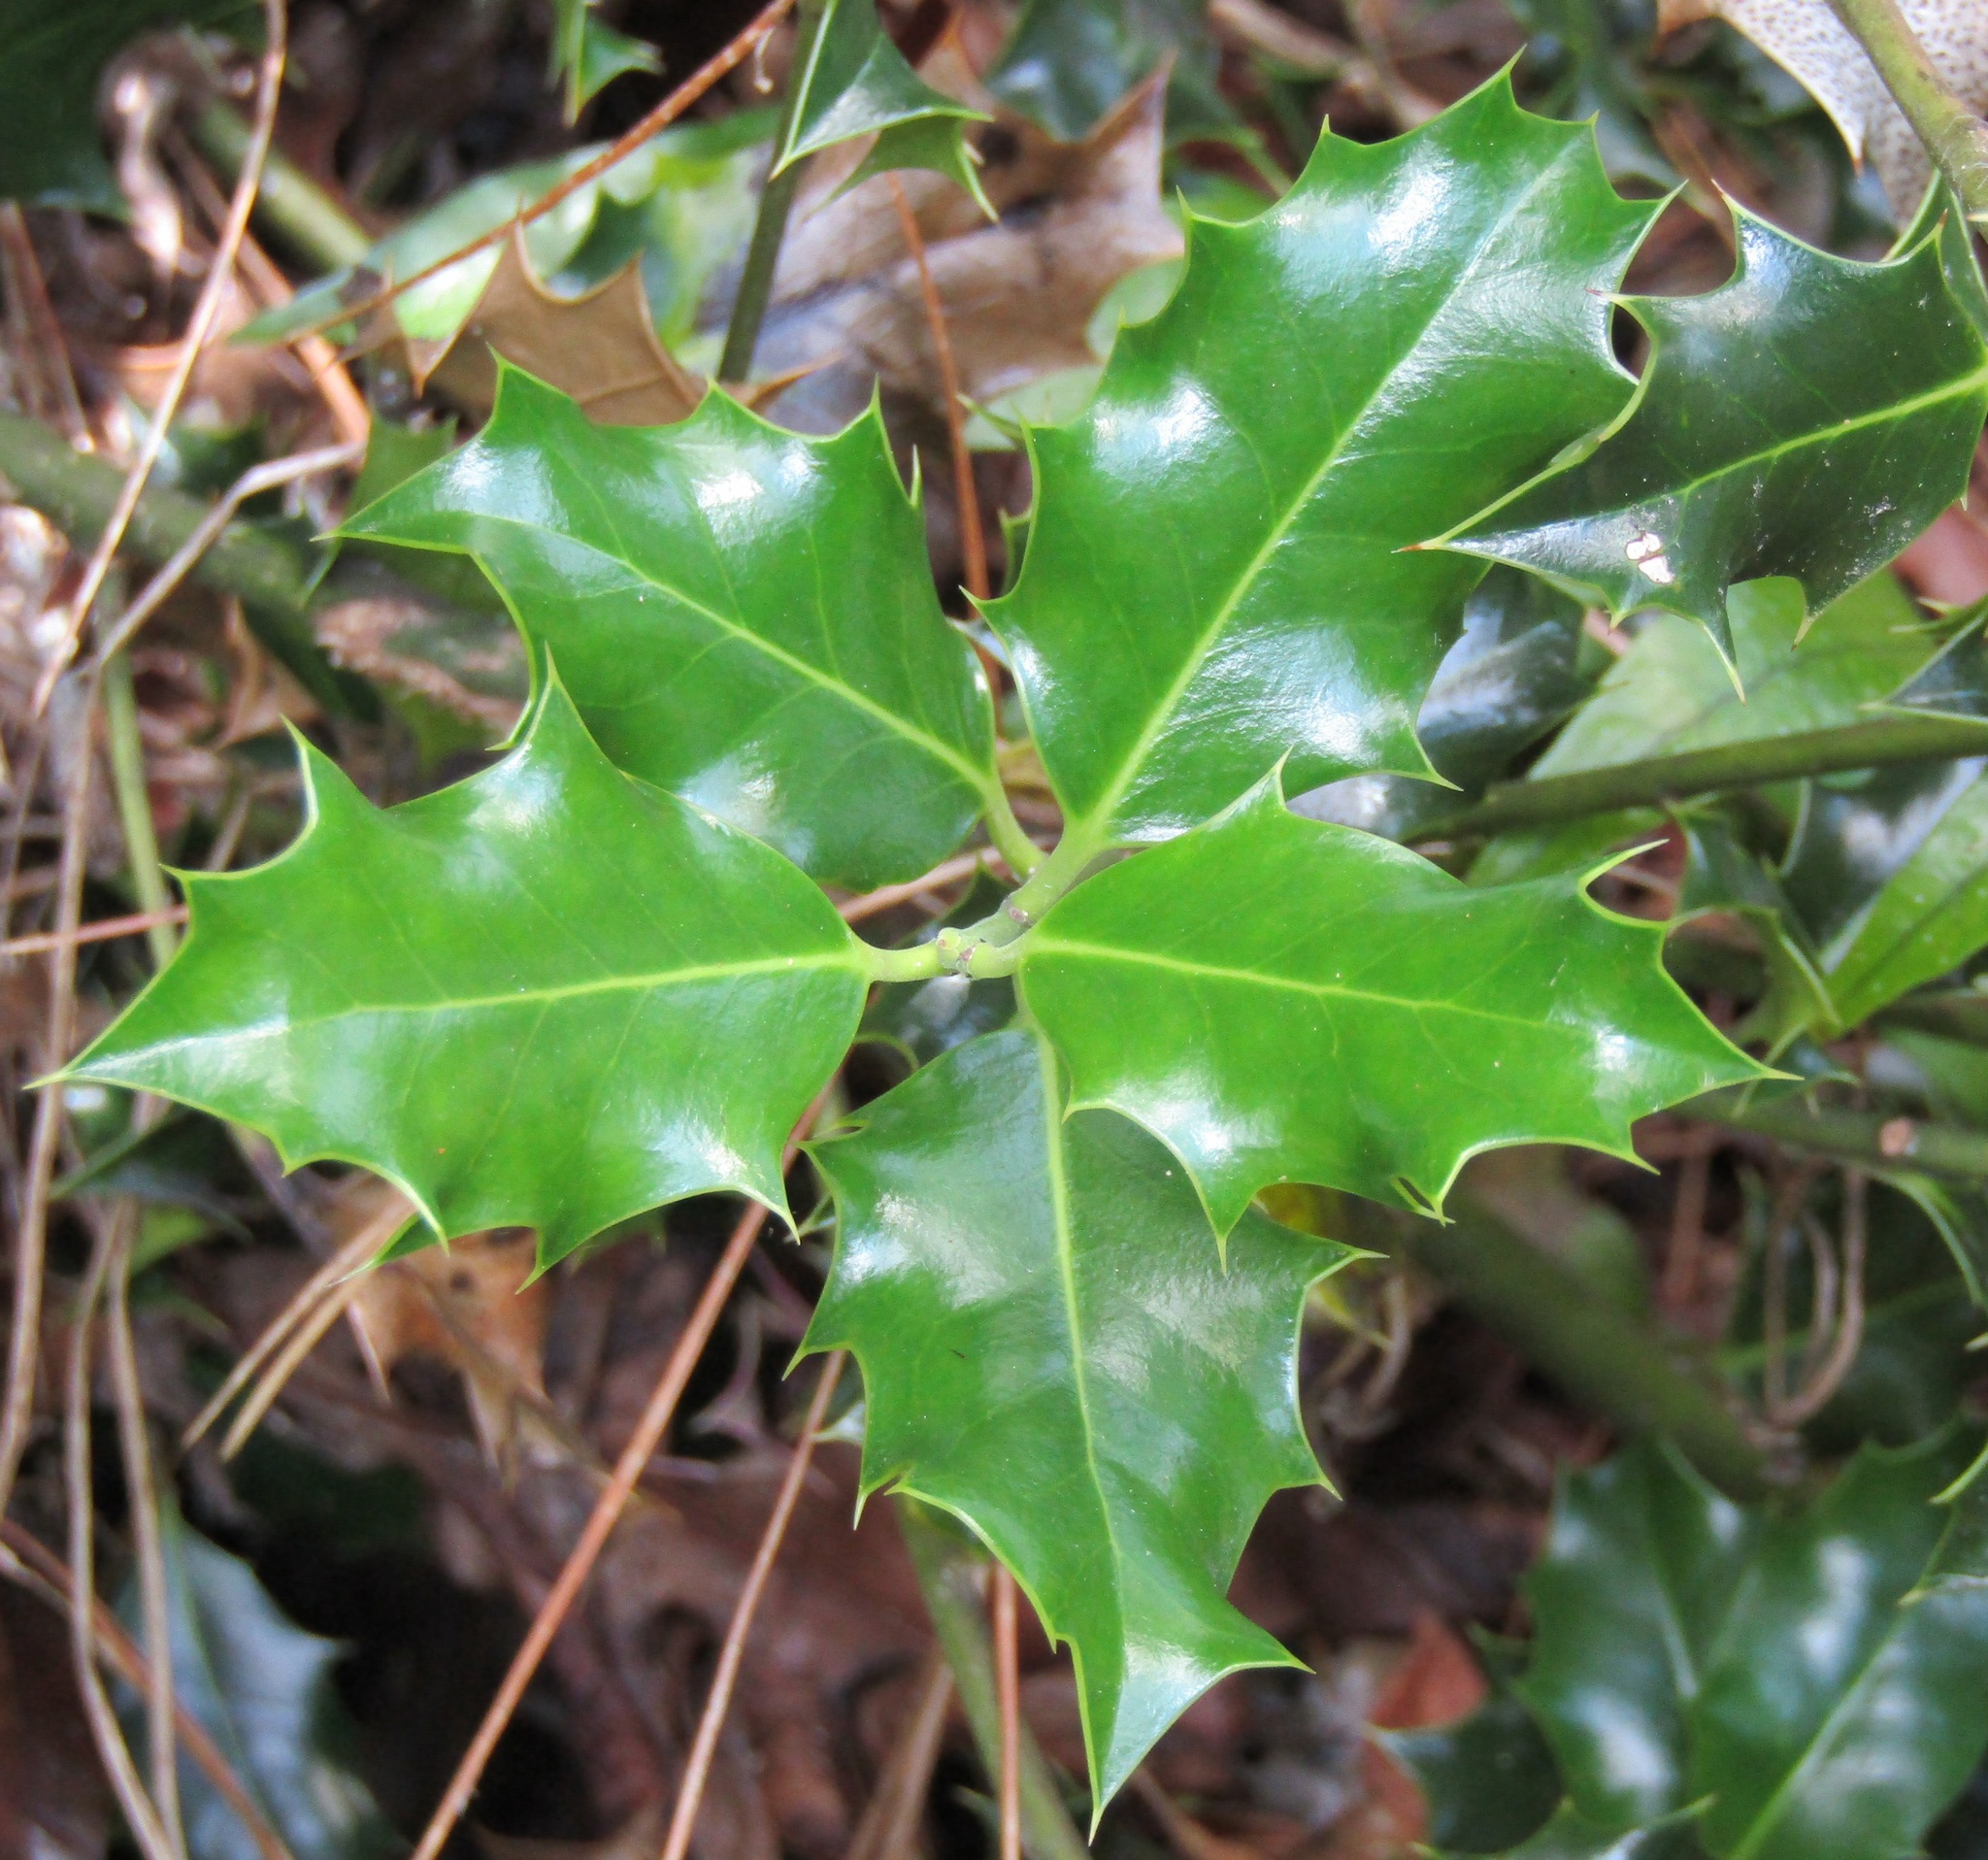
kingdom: Plantae
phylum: Tracheophyta
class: Magnoliopsida
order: Aquifoliales
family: Aquifoliaceae
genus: Ilex
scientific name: Ilex aquifolium
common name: English holly
